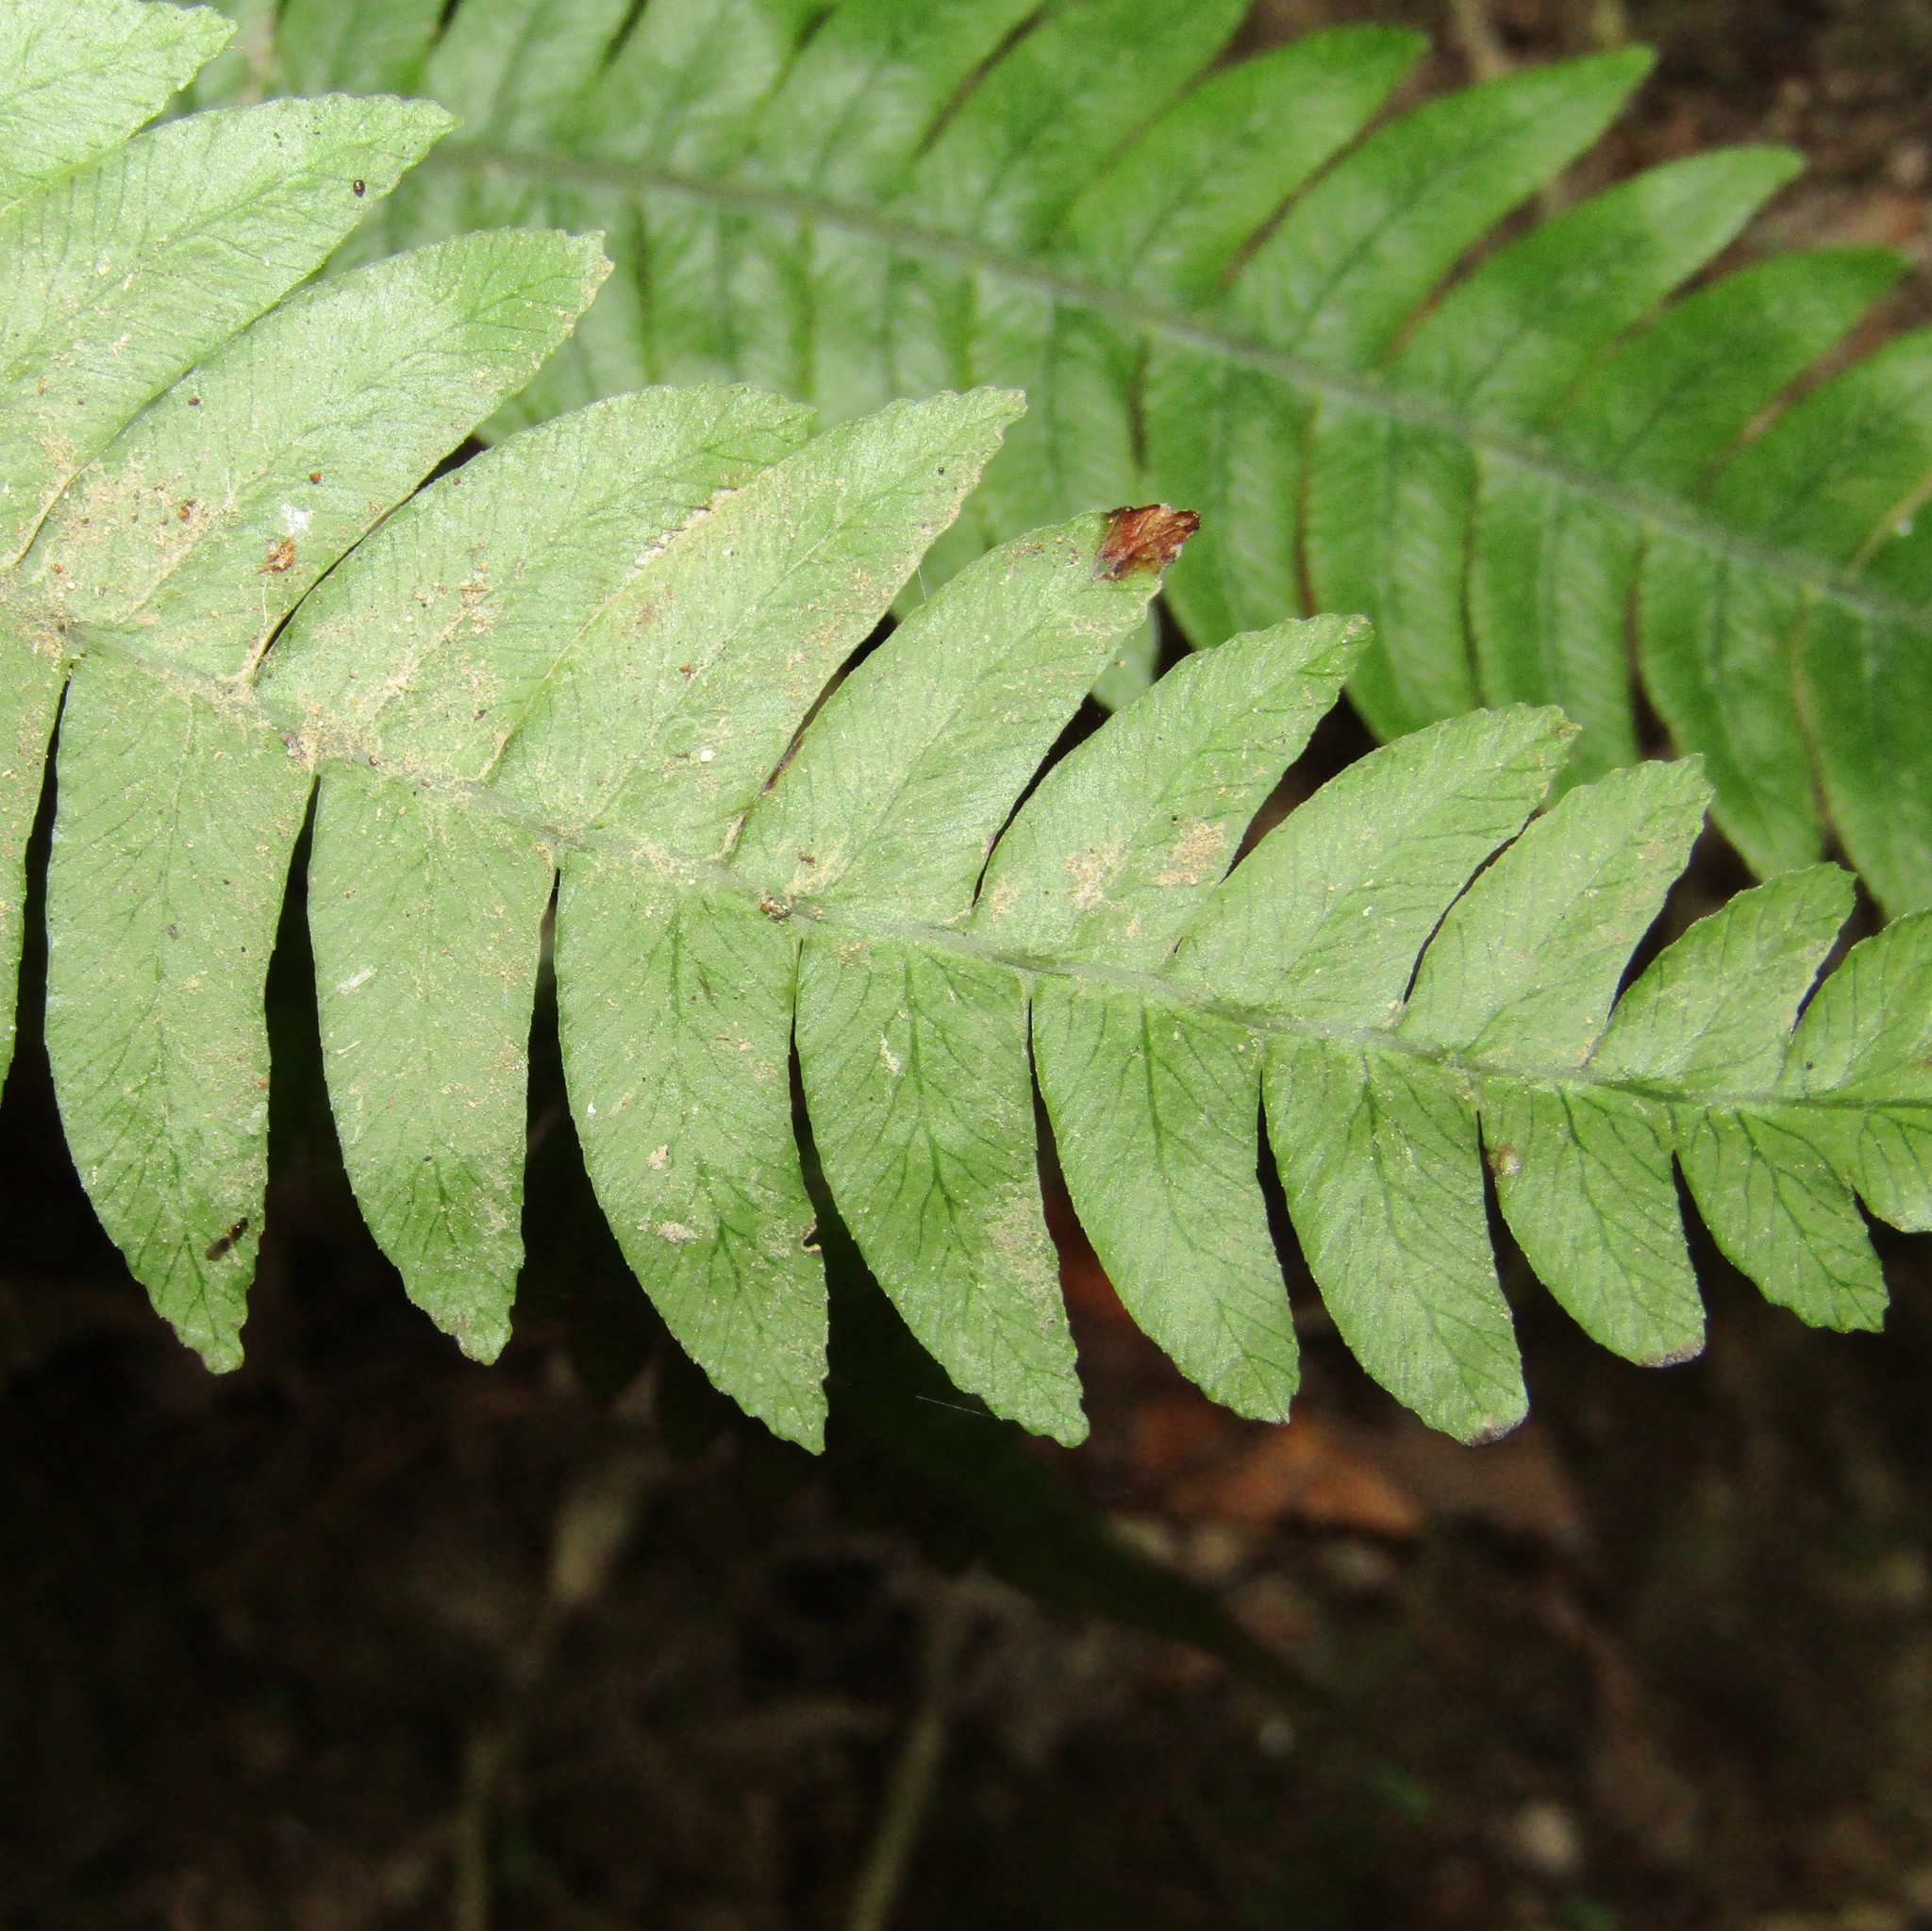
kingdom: Plantae
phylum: Tracheophyta
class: Polypodiopsida
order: Polypodiales
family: Blechnaceae
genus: Austroblechnum
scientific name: Austroblechnum lanceolatum
